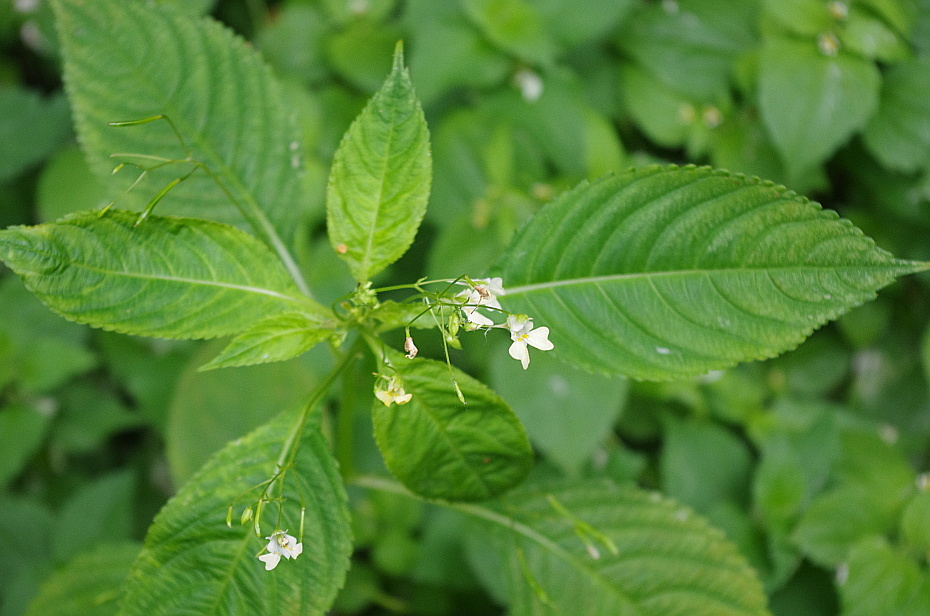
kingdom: Plantae
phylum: Tracheophyta
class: Magnoliopsida
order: Ericales
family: Balsaminaceae
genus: Impatiens
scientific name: Impatiens parviflora
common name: Small balsam
